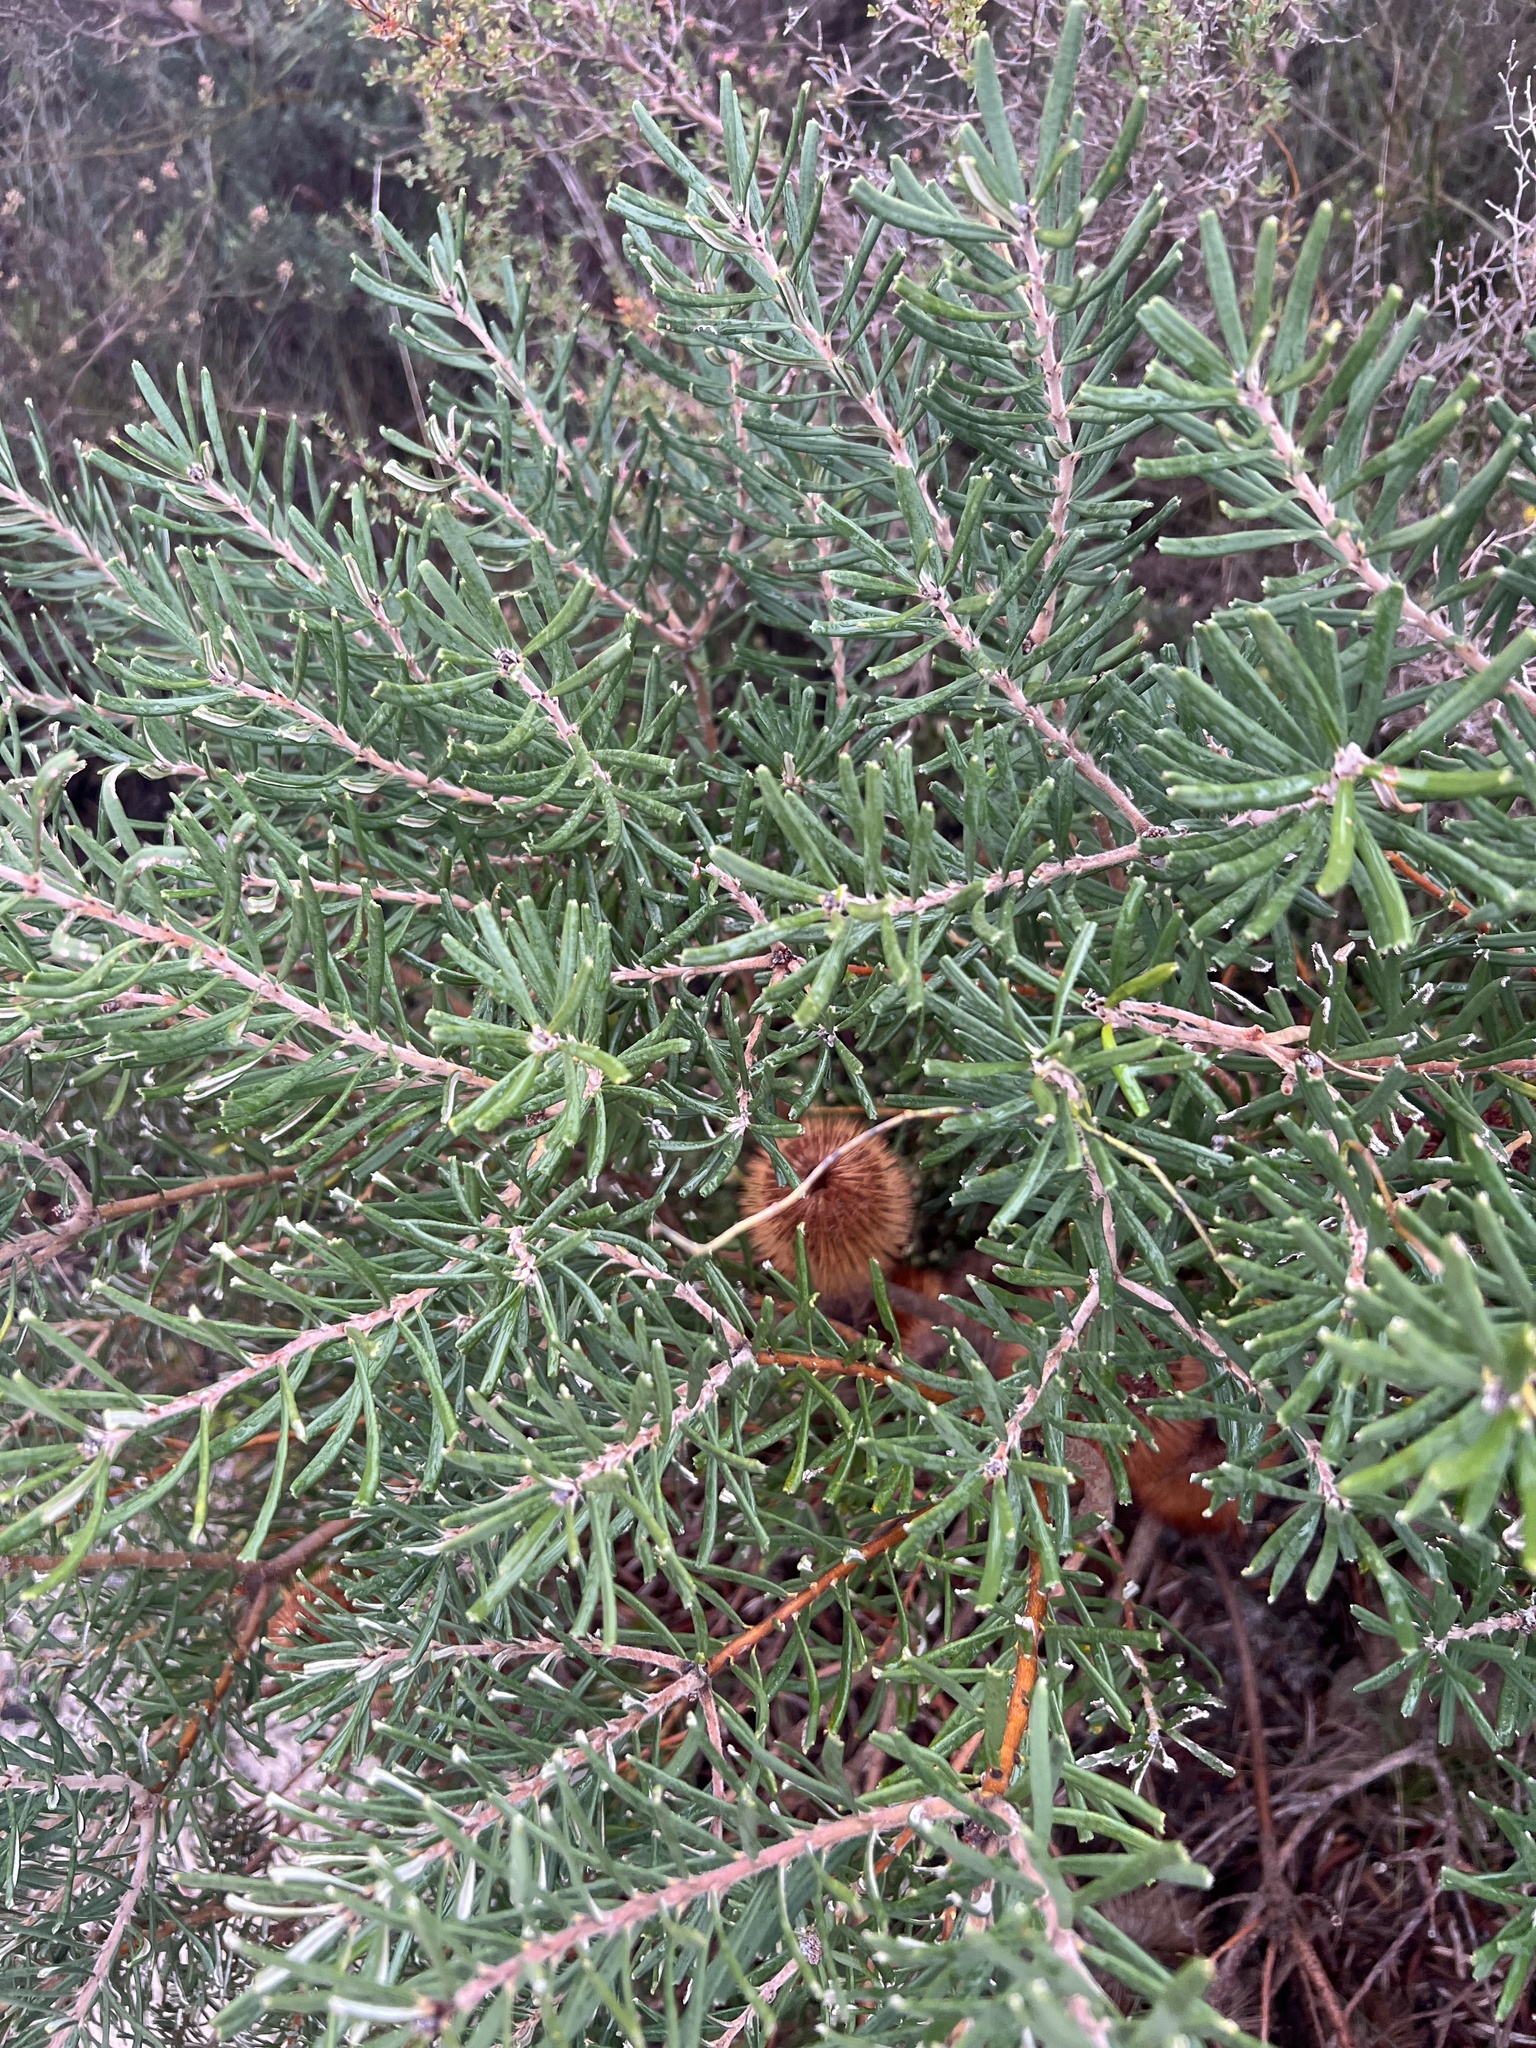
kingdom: Plantae
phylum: Tracheophyta
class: Magnoliopsida
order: Proteales
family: Proteaceae
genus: Banksia
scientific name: Banksia marginata
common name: Silver banksia
